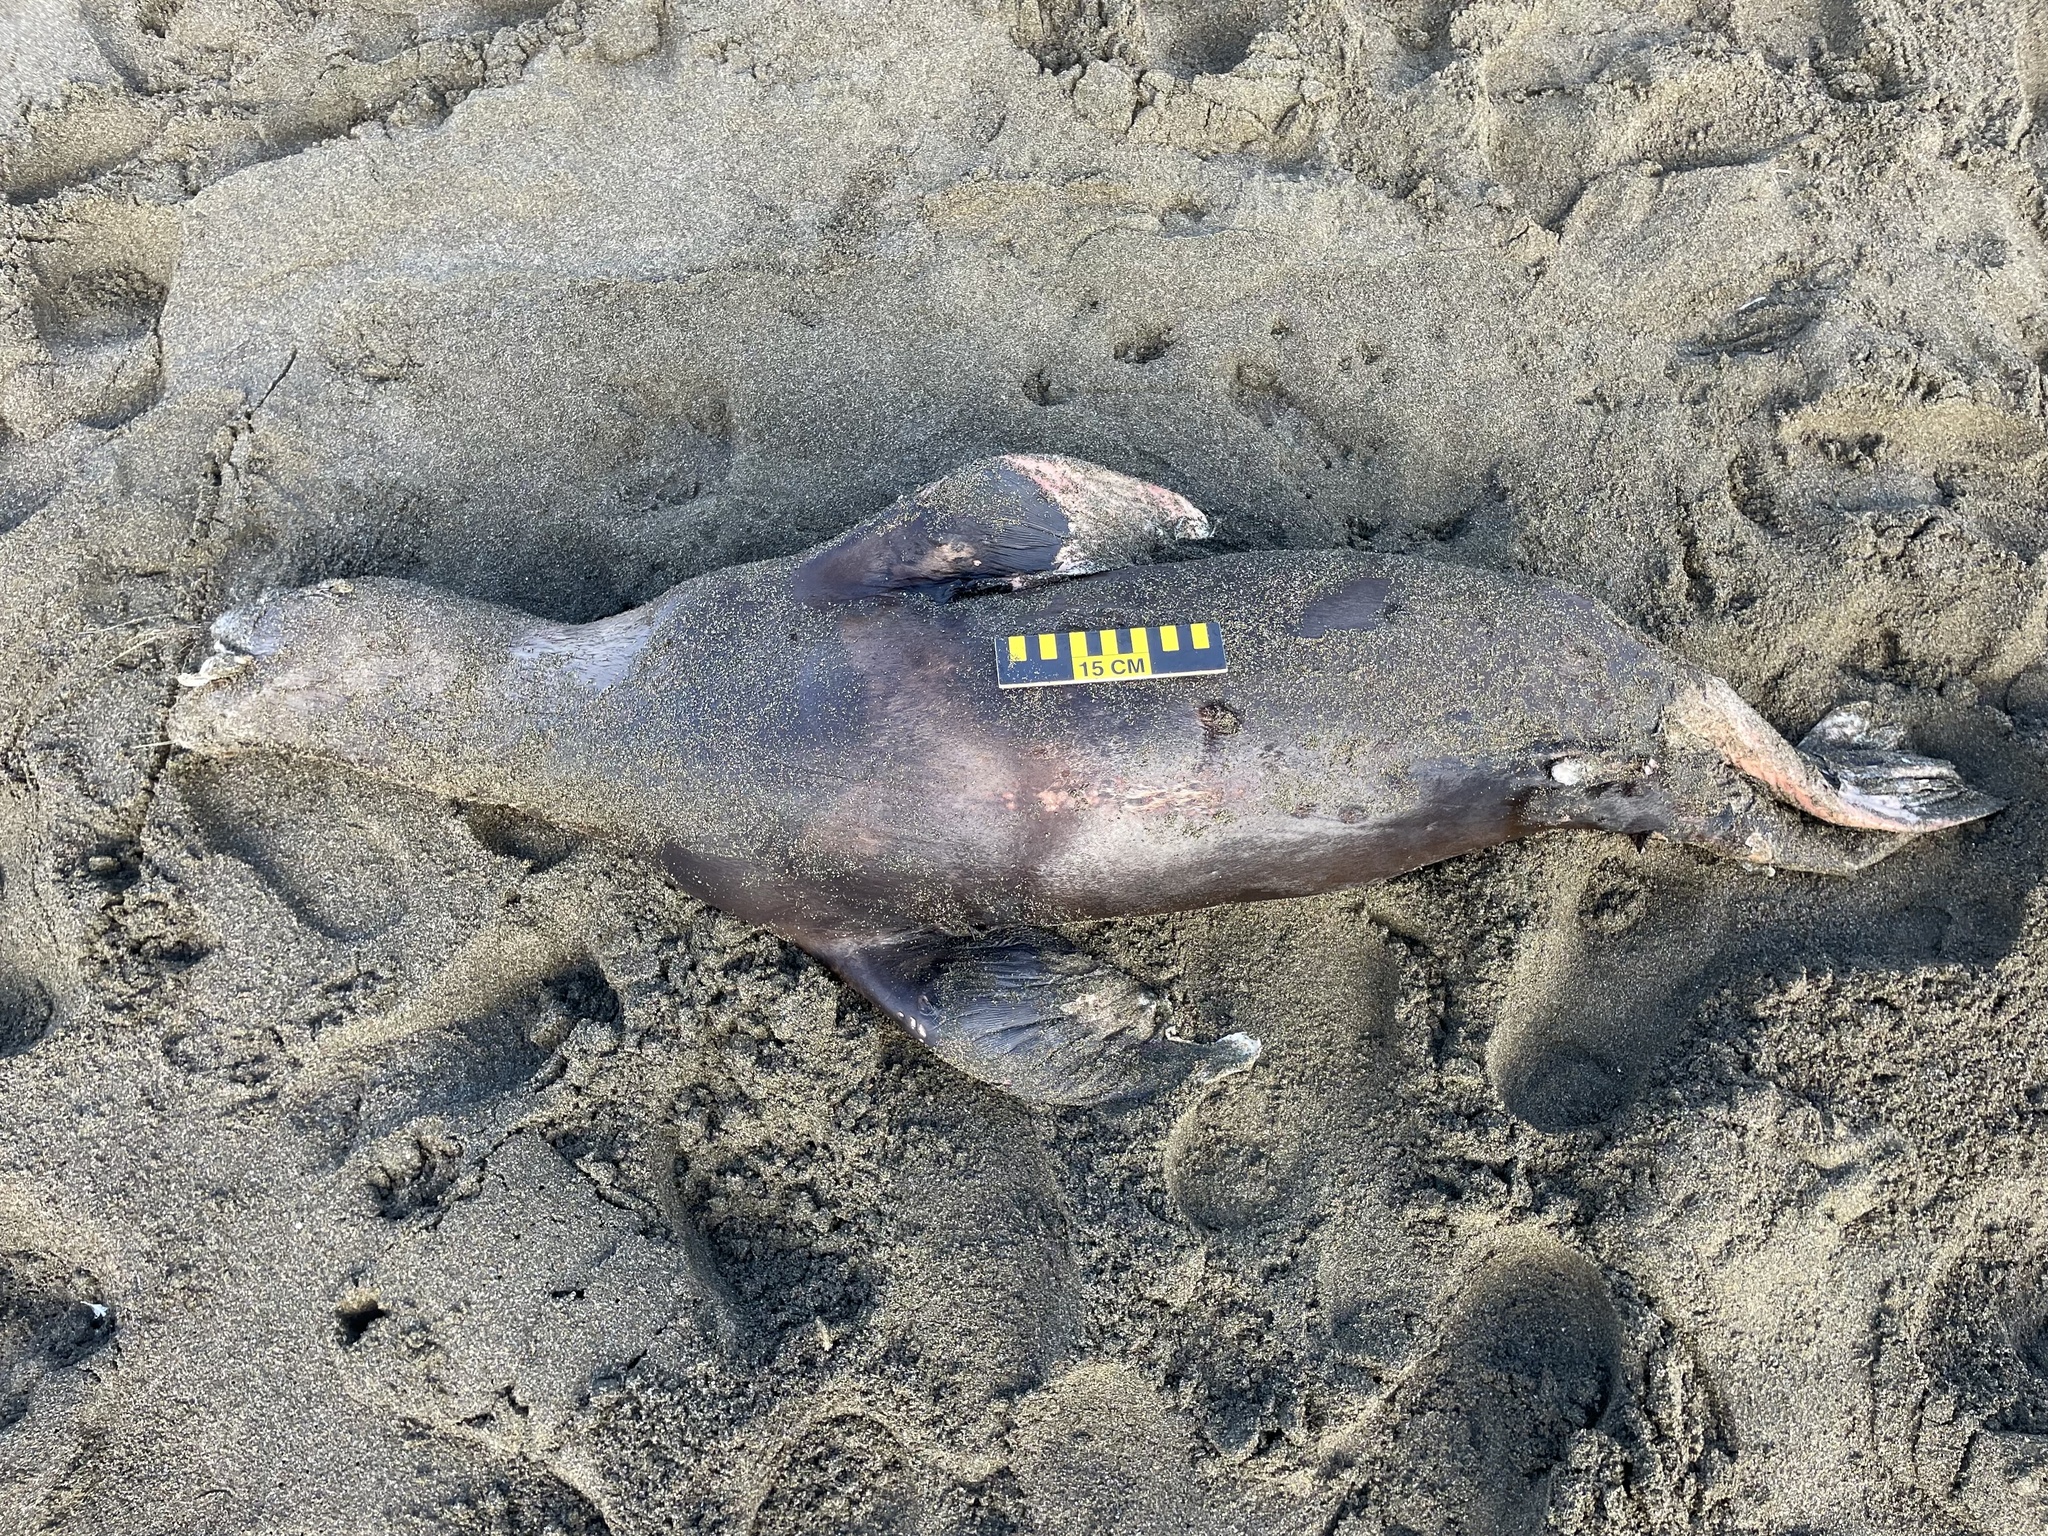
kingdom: Animalia
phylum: Chordata
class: Mammalia
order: Carnivora
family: Otariidae
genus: Zalophus
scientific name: Zalophus californianus
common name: California sea lion
